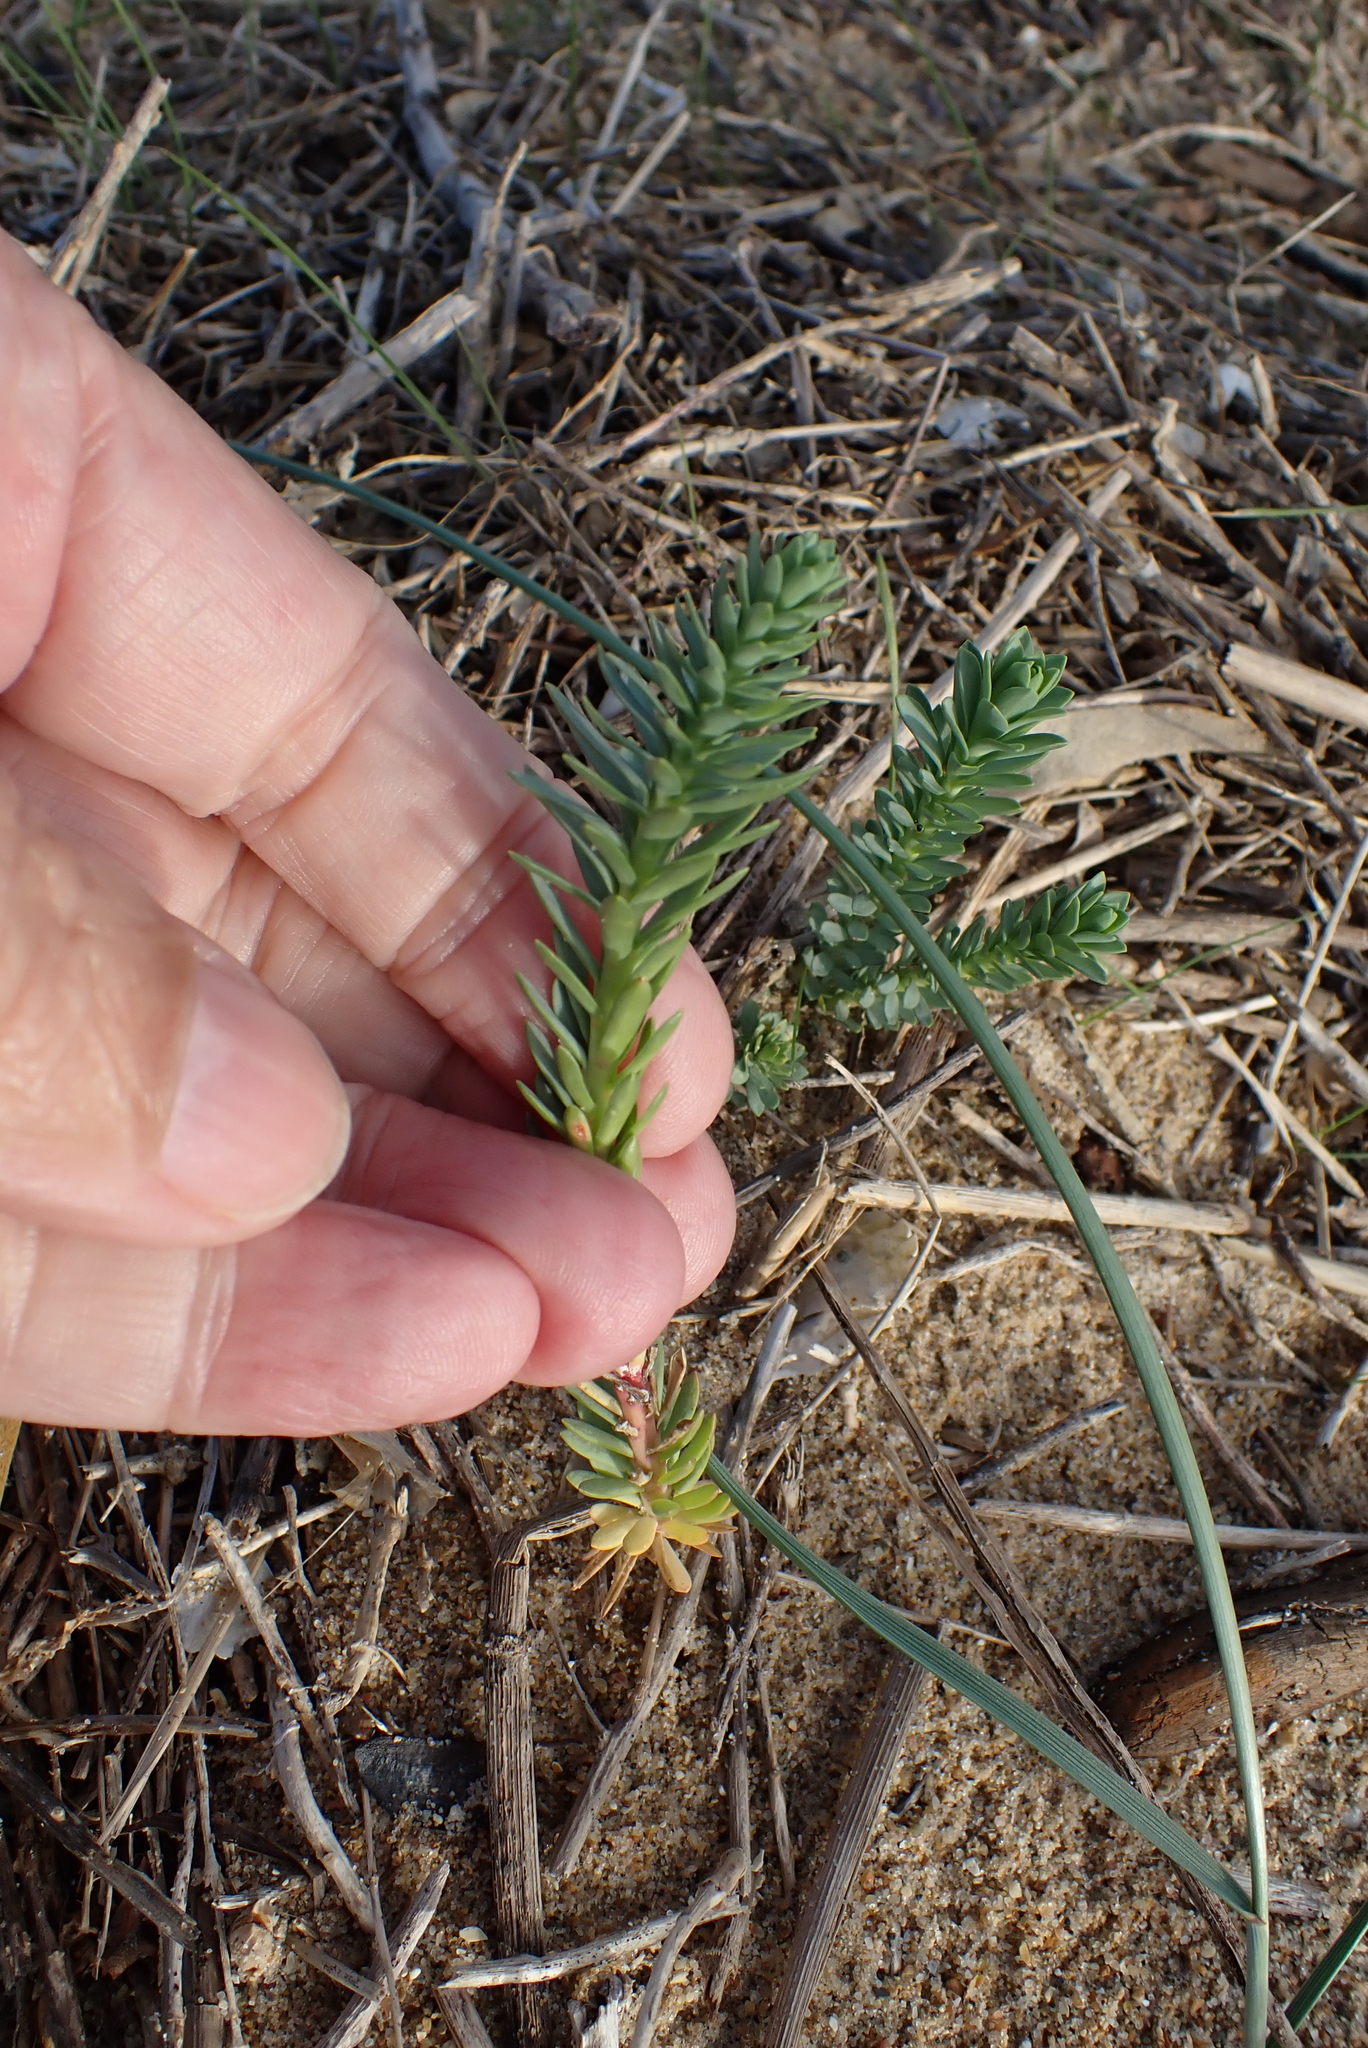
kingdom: Plantae
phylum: Tracheophyta
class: Magnoliopsida
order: Malpighiales
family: Euphorbiaceae
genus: Euphorbia
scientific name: Euphorbia paralias
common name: Sea spurge
